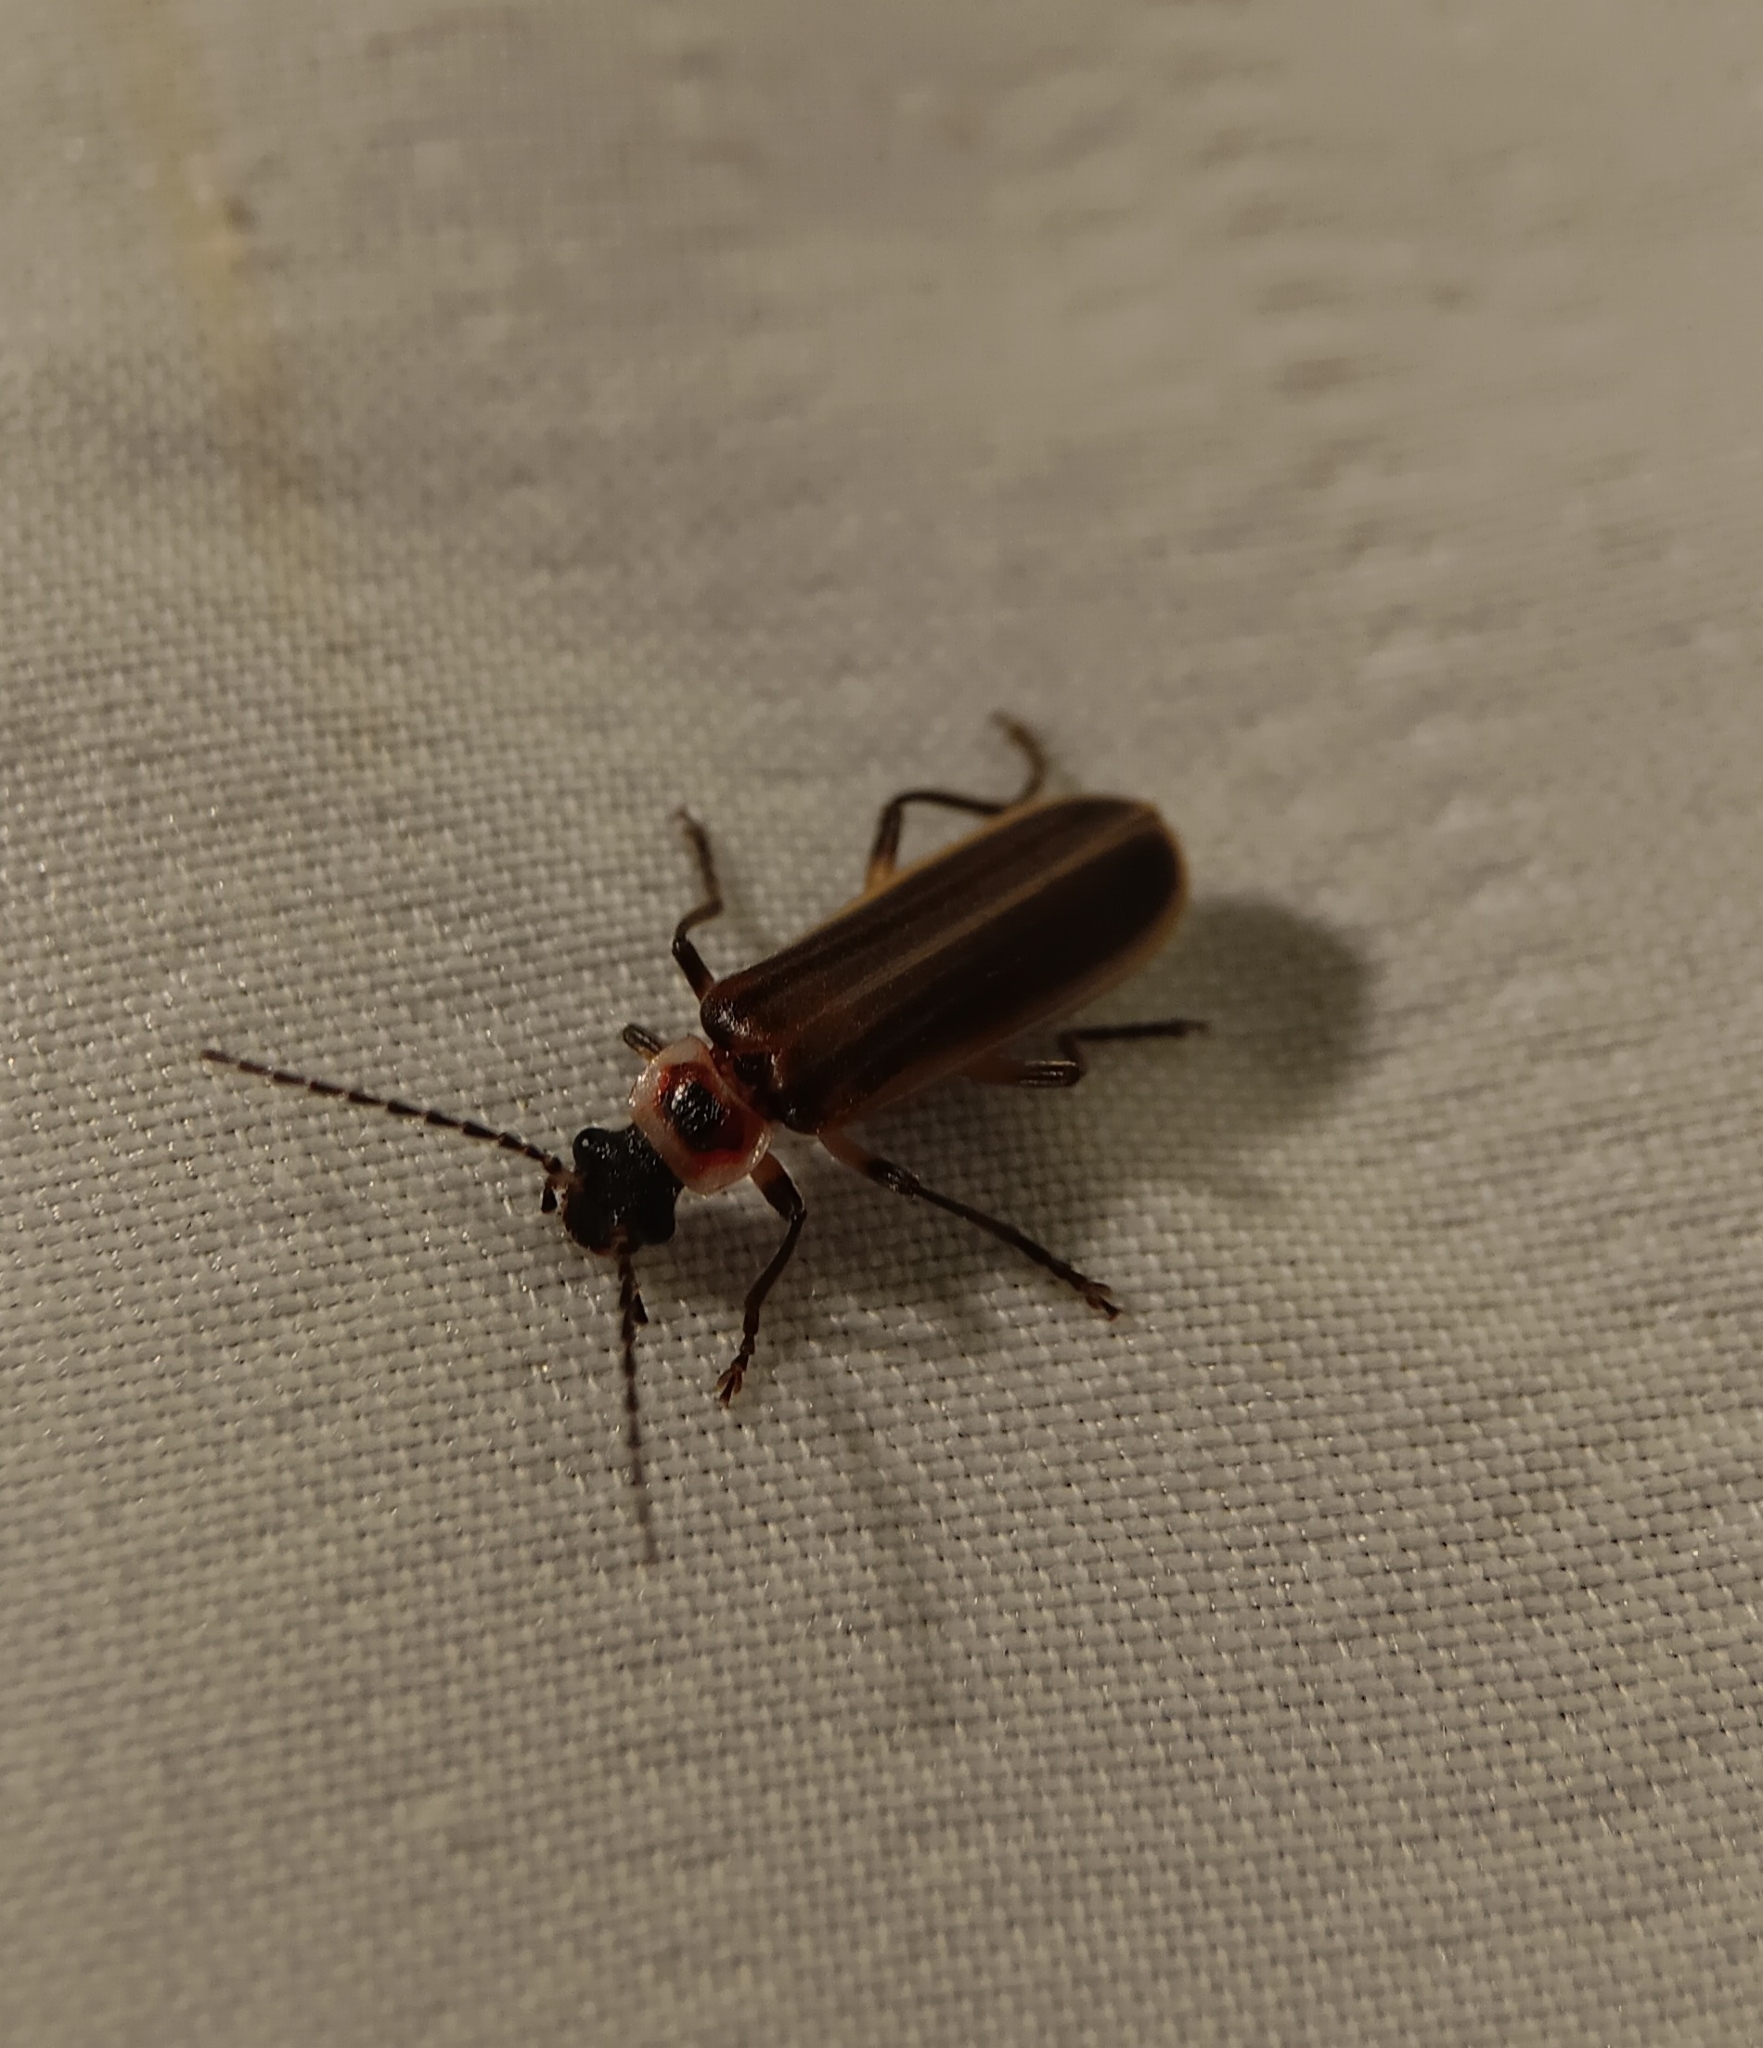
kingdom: Animalia
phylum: Arthropoda
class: Insecta
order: Coleoptera
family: Cantharidae
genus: Podabrus
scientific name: Podabrus appendiculatus
